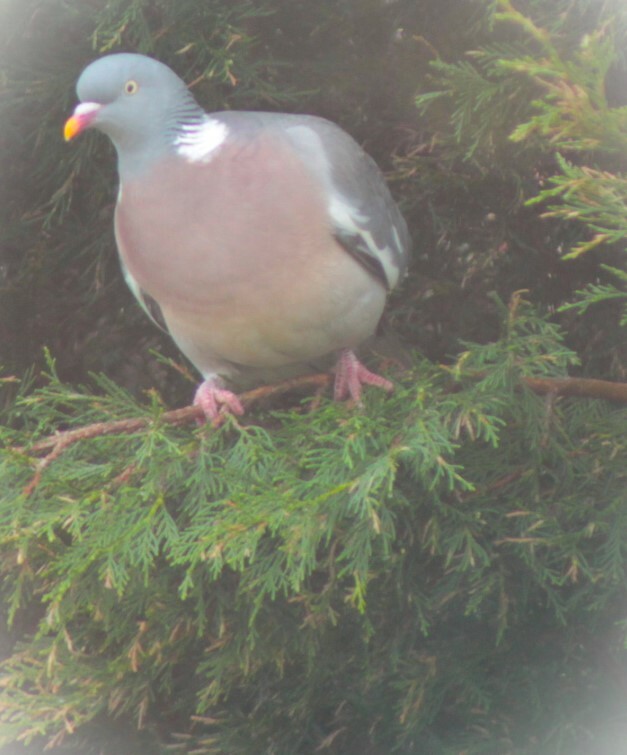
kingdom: Animalia
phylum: Chordata
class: Aves
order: Columbiformes
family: Columbidae
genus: Columba
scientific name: Columba palumbus
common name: Common wood pigeon
